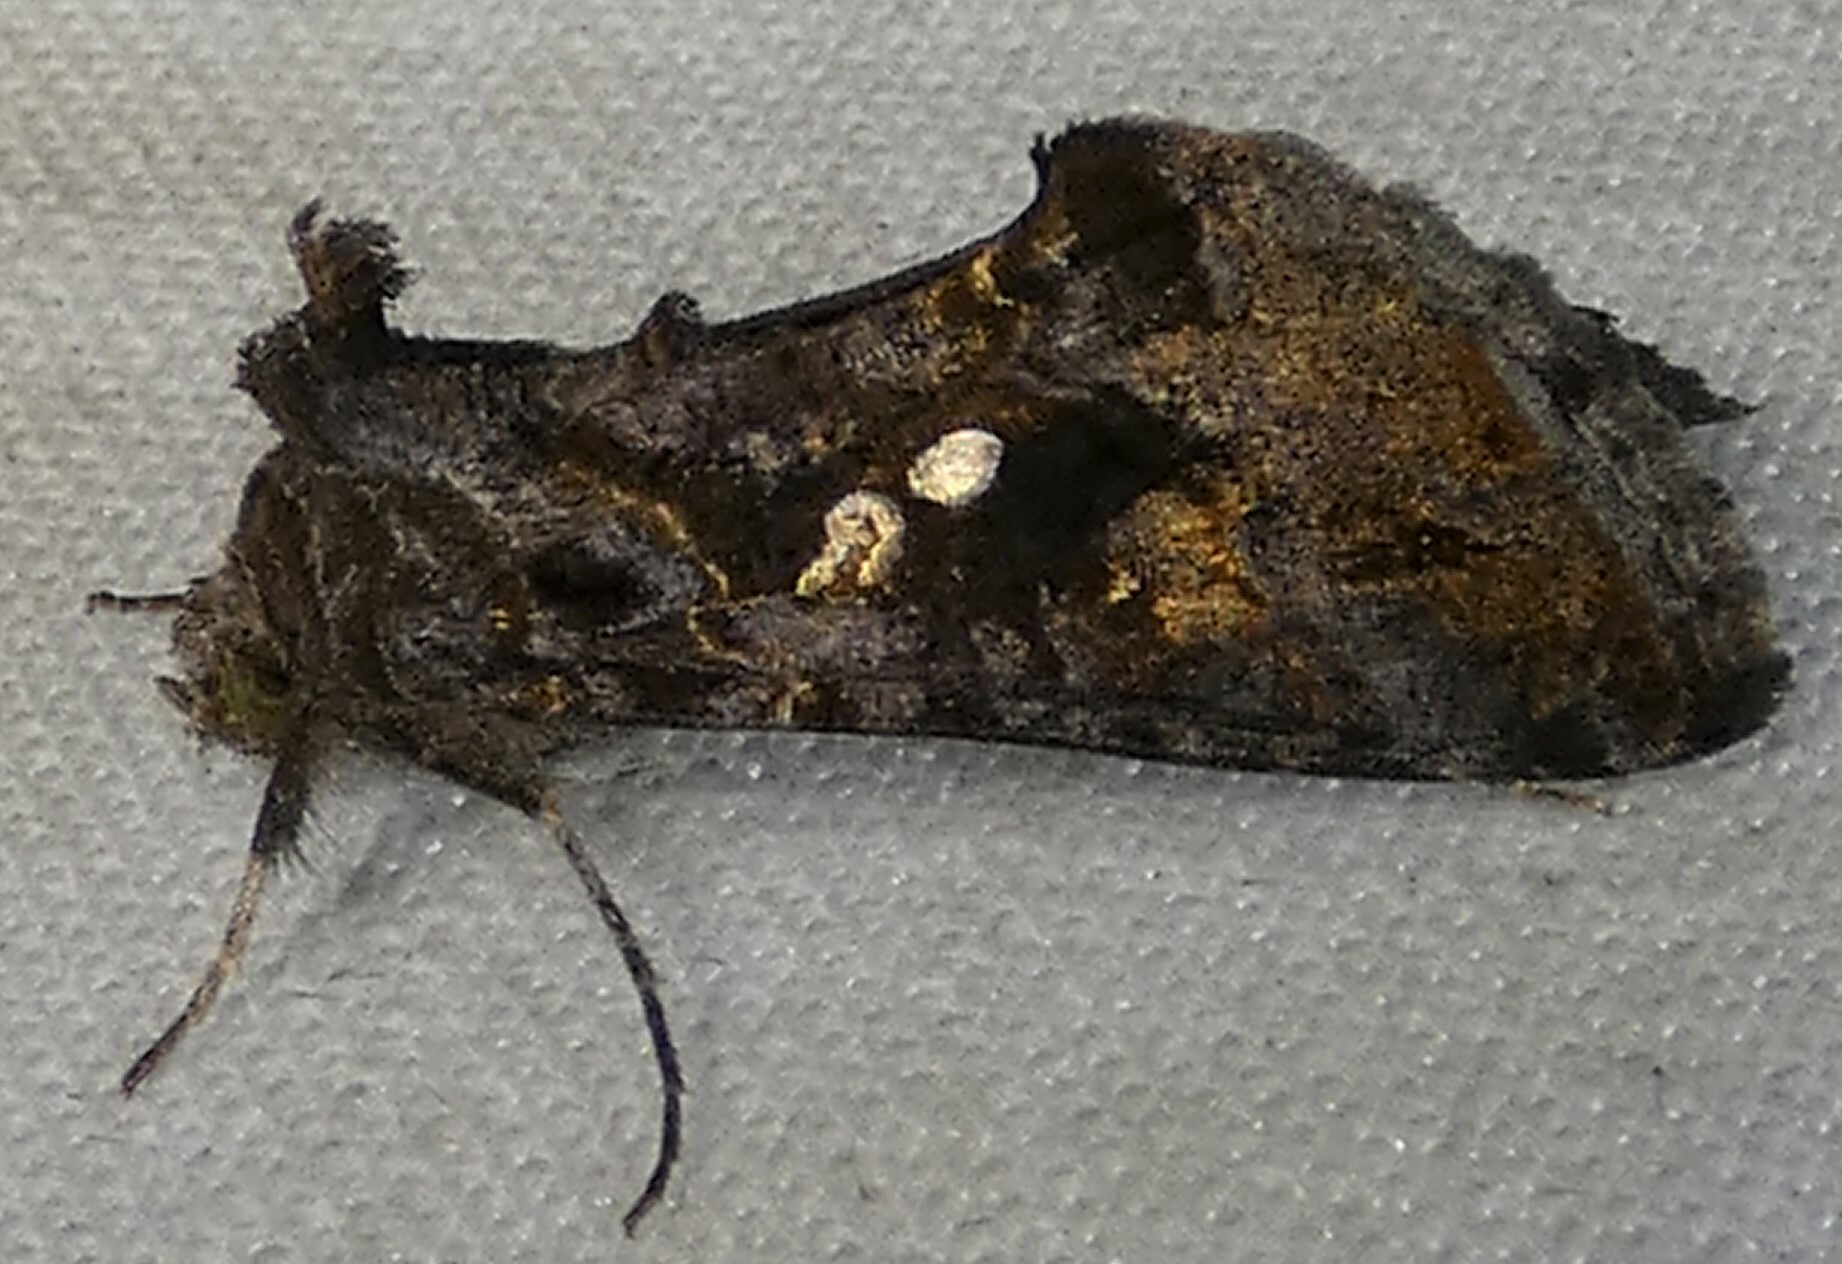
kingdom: Animalia
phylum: Arthropoda
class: Insecta
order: Lepidoptera
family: Noctuidae
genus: Chrysodeixis
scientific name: Chrysodeixis includens
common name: Cutworm moth
